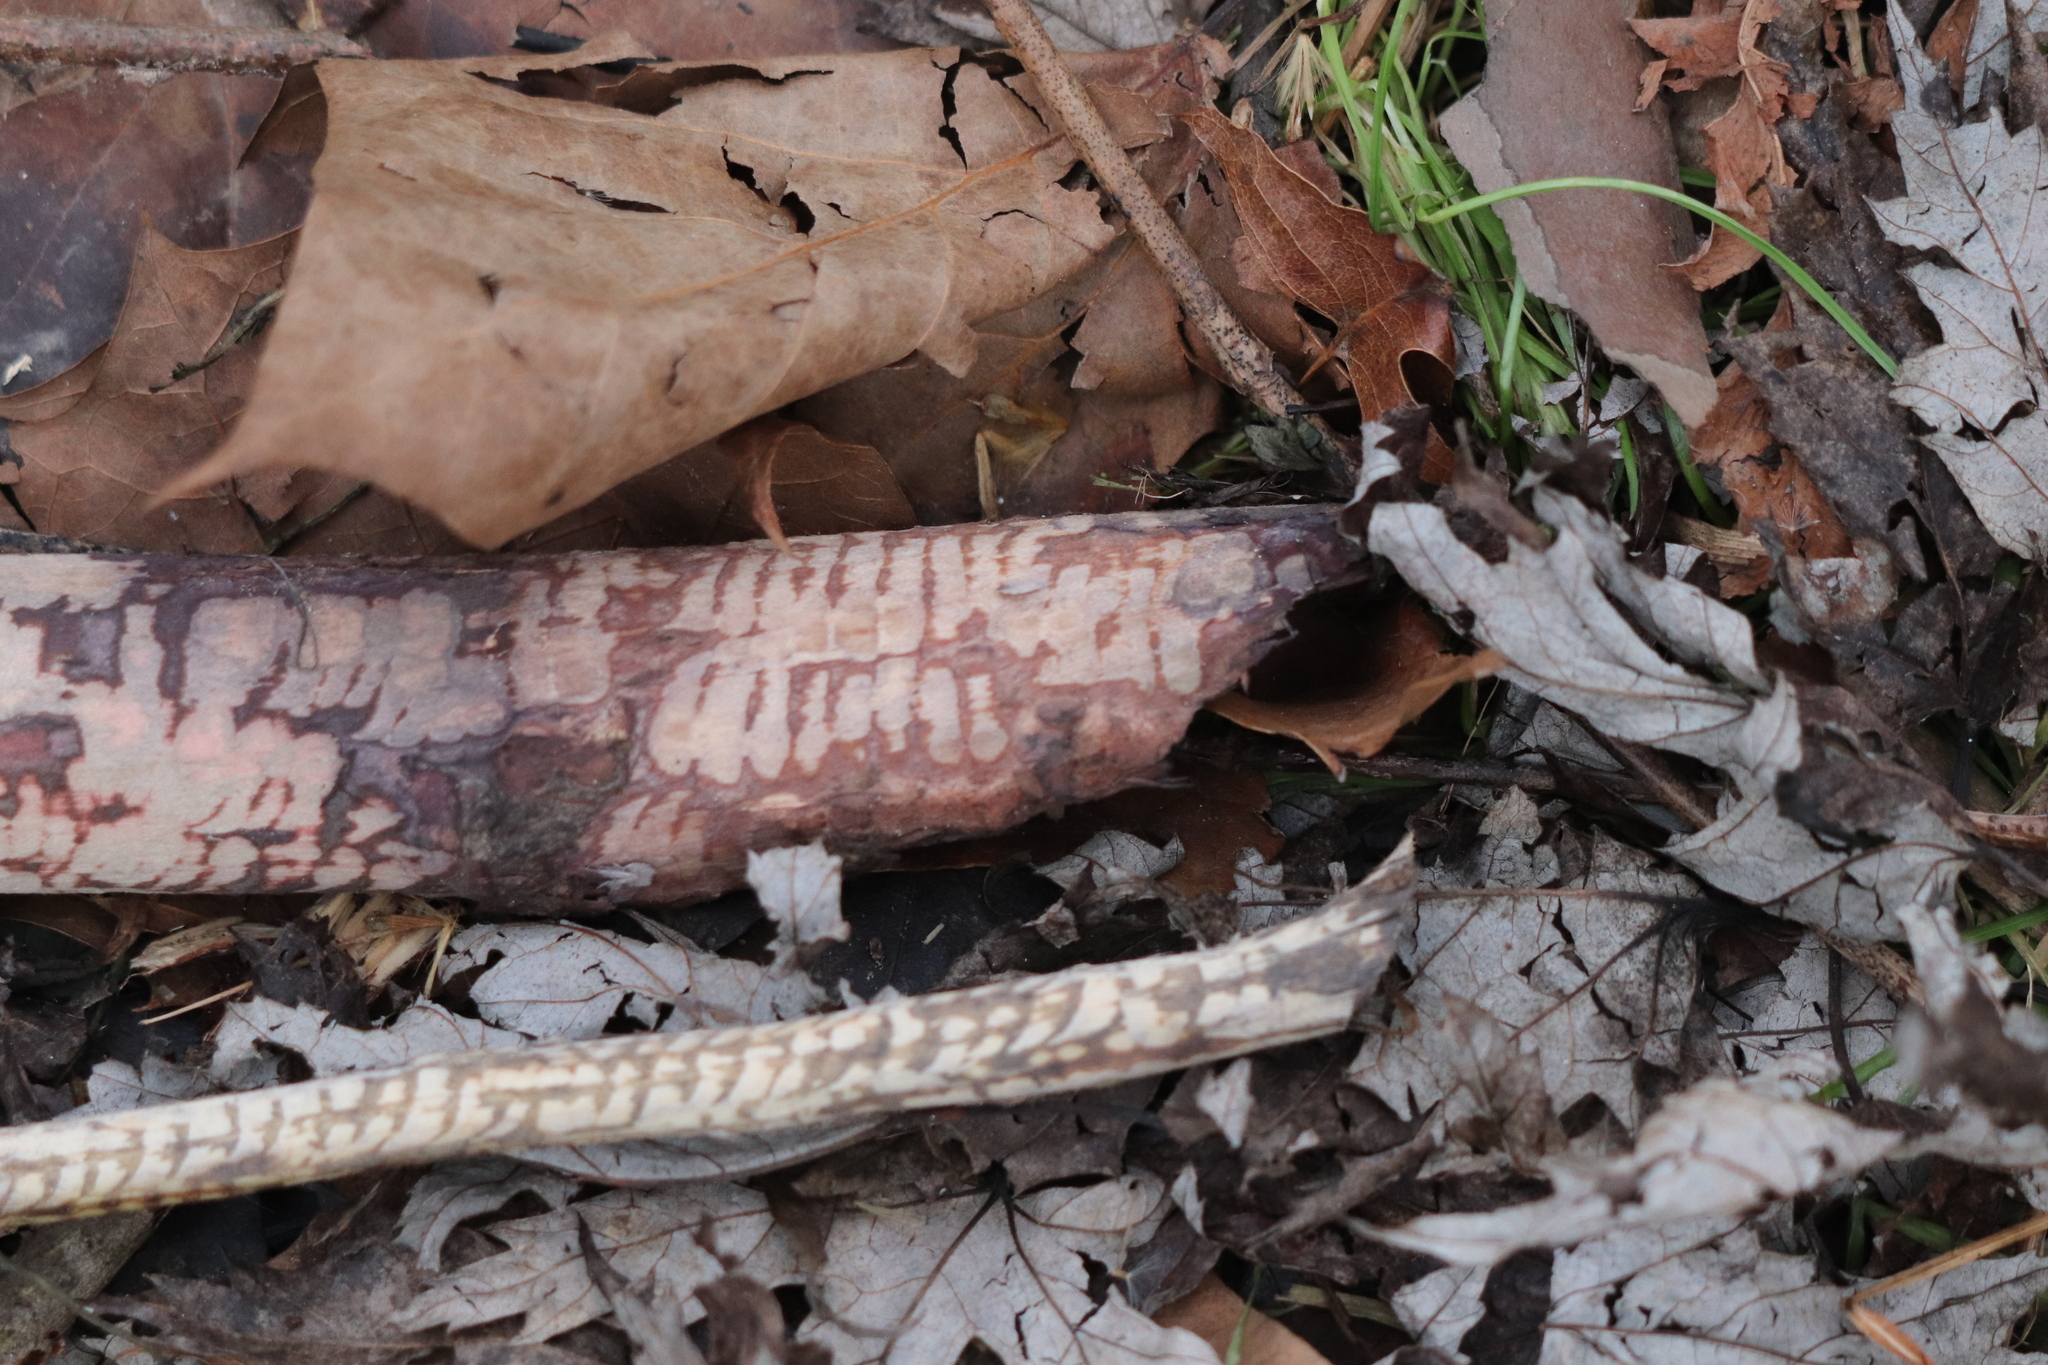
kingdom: Animalia
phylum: Chordata
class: Mammalia
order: Rodentia
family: Castoridae
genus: Castor
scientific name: Castor canadensis
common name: American beaver
